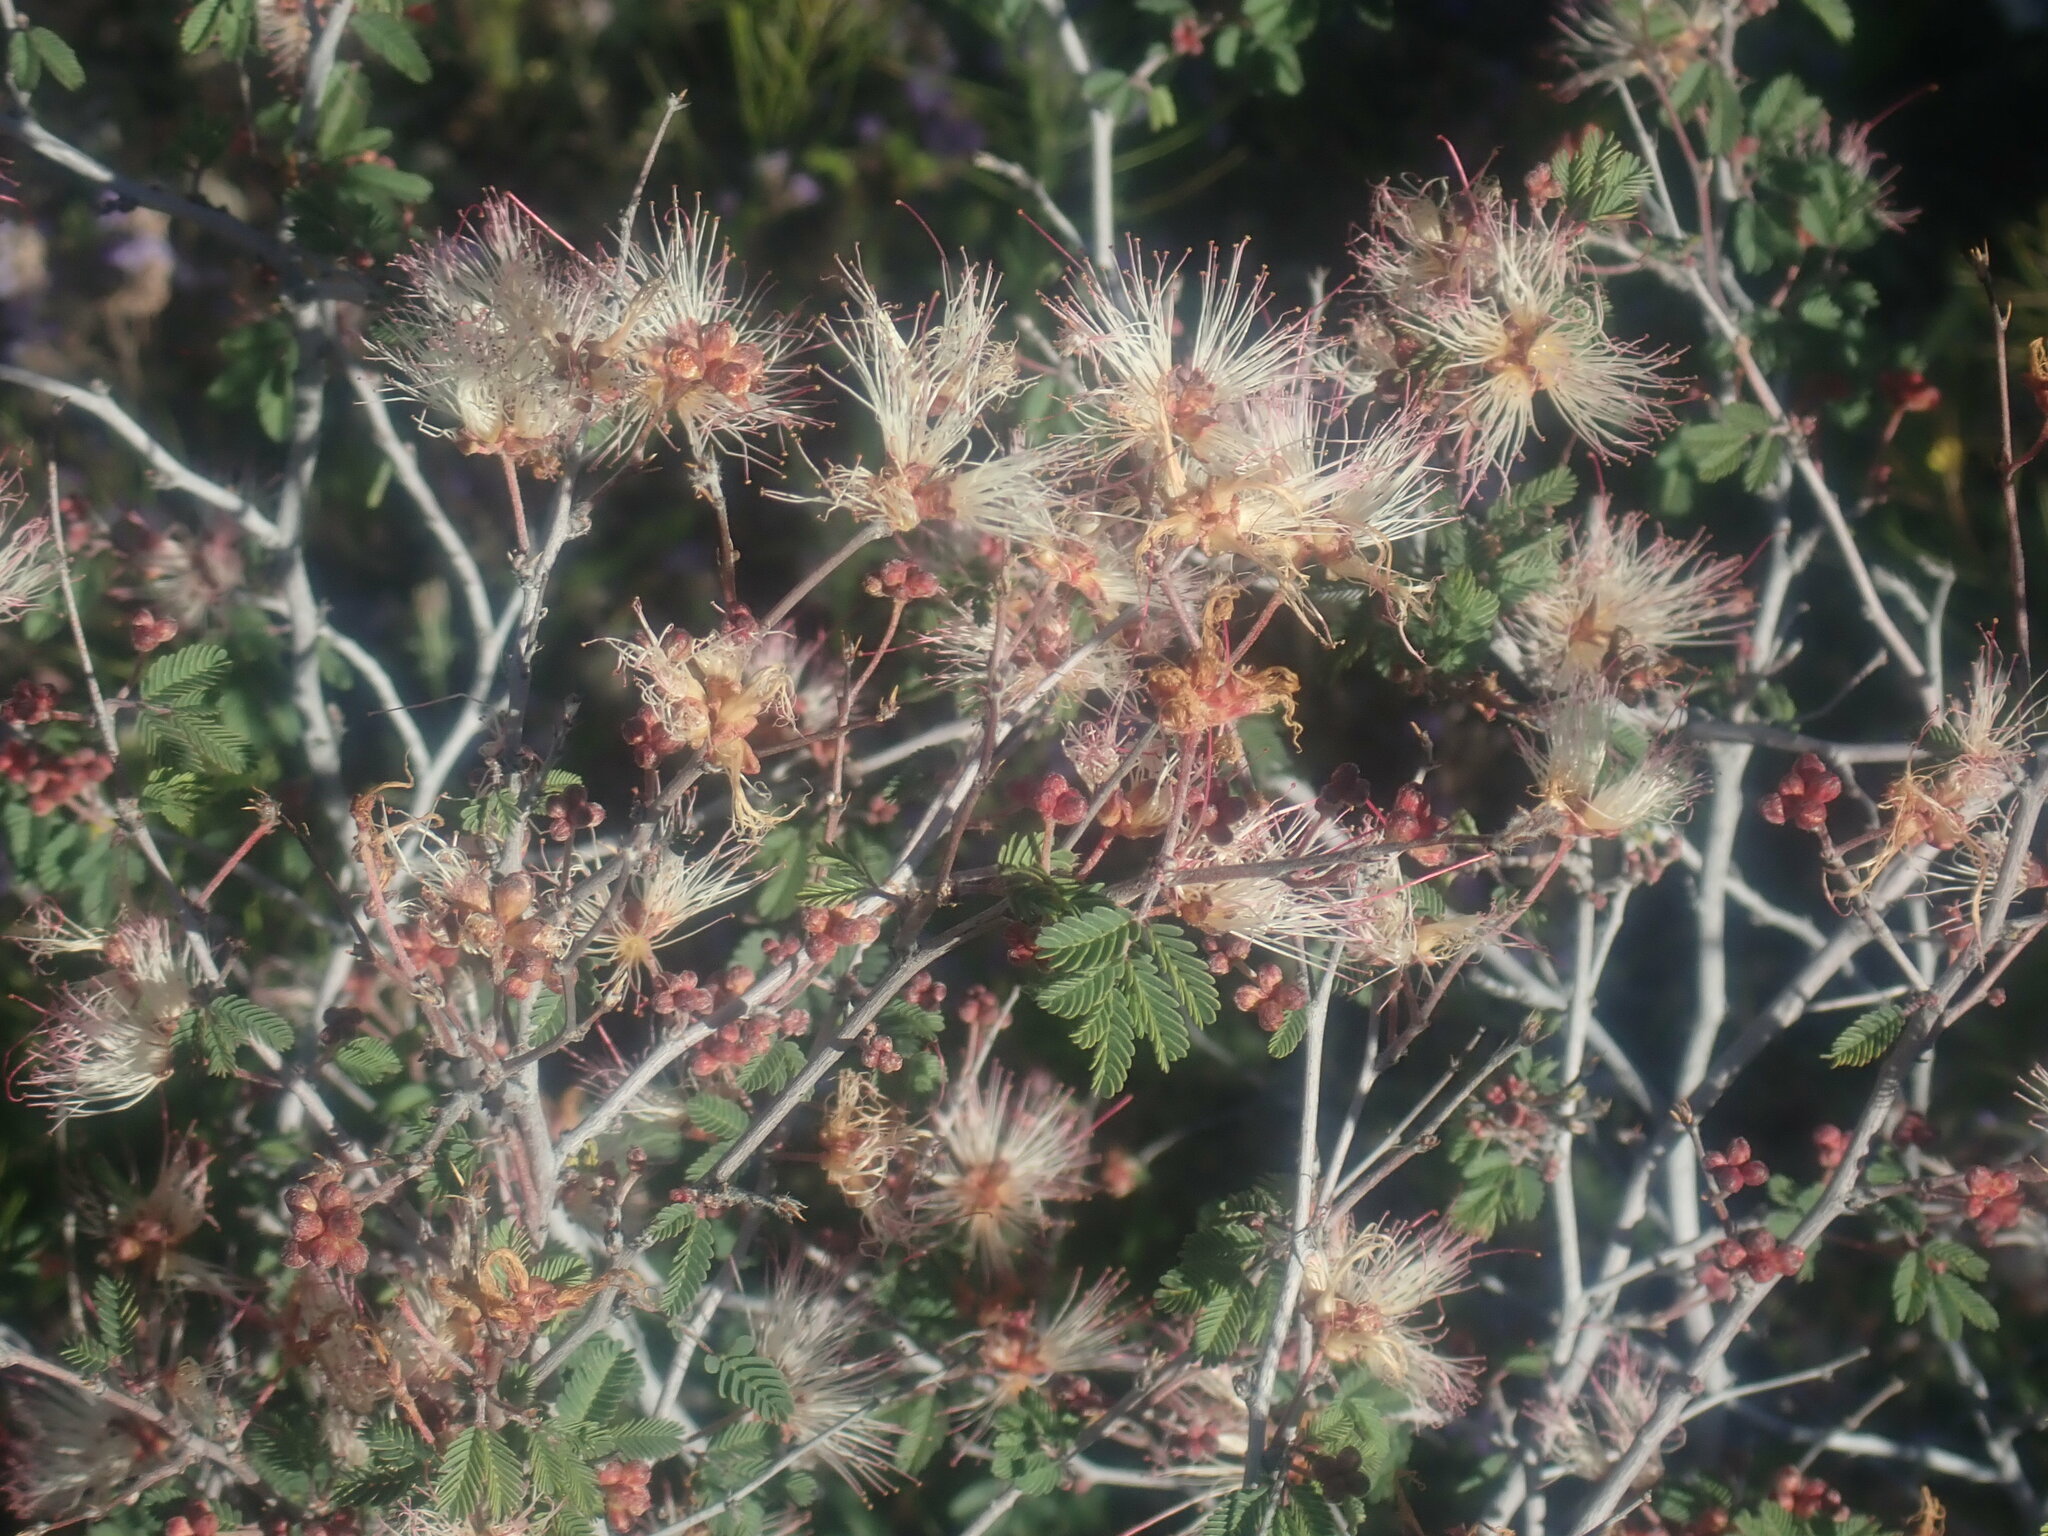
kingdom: Plantae
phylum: Tracheophyta
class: Magnoliopsida
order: Fabales
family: Fabaceae
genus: Calliandra
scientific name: Calliandra eriophylla
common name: Fairy-duster
